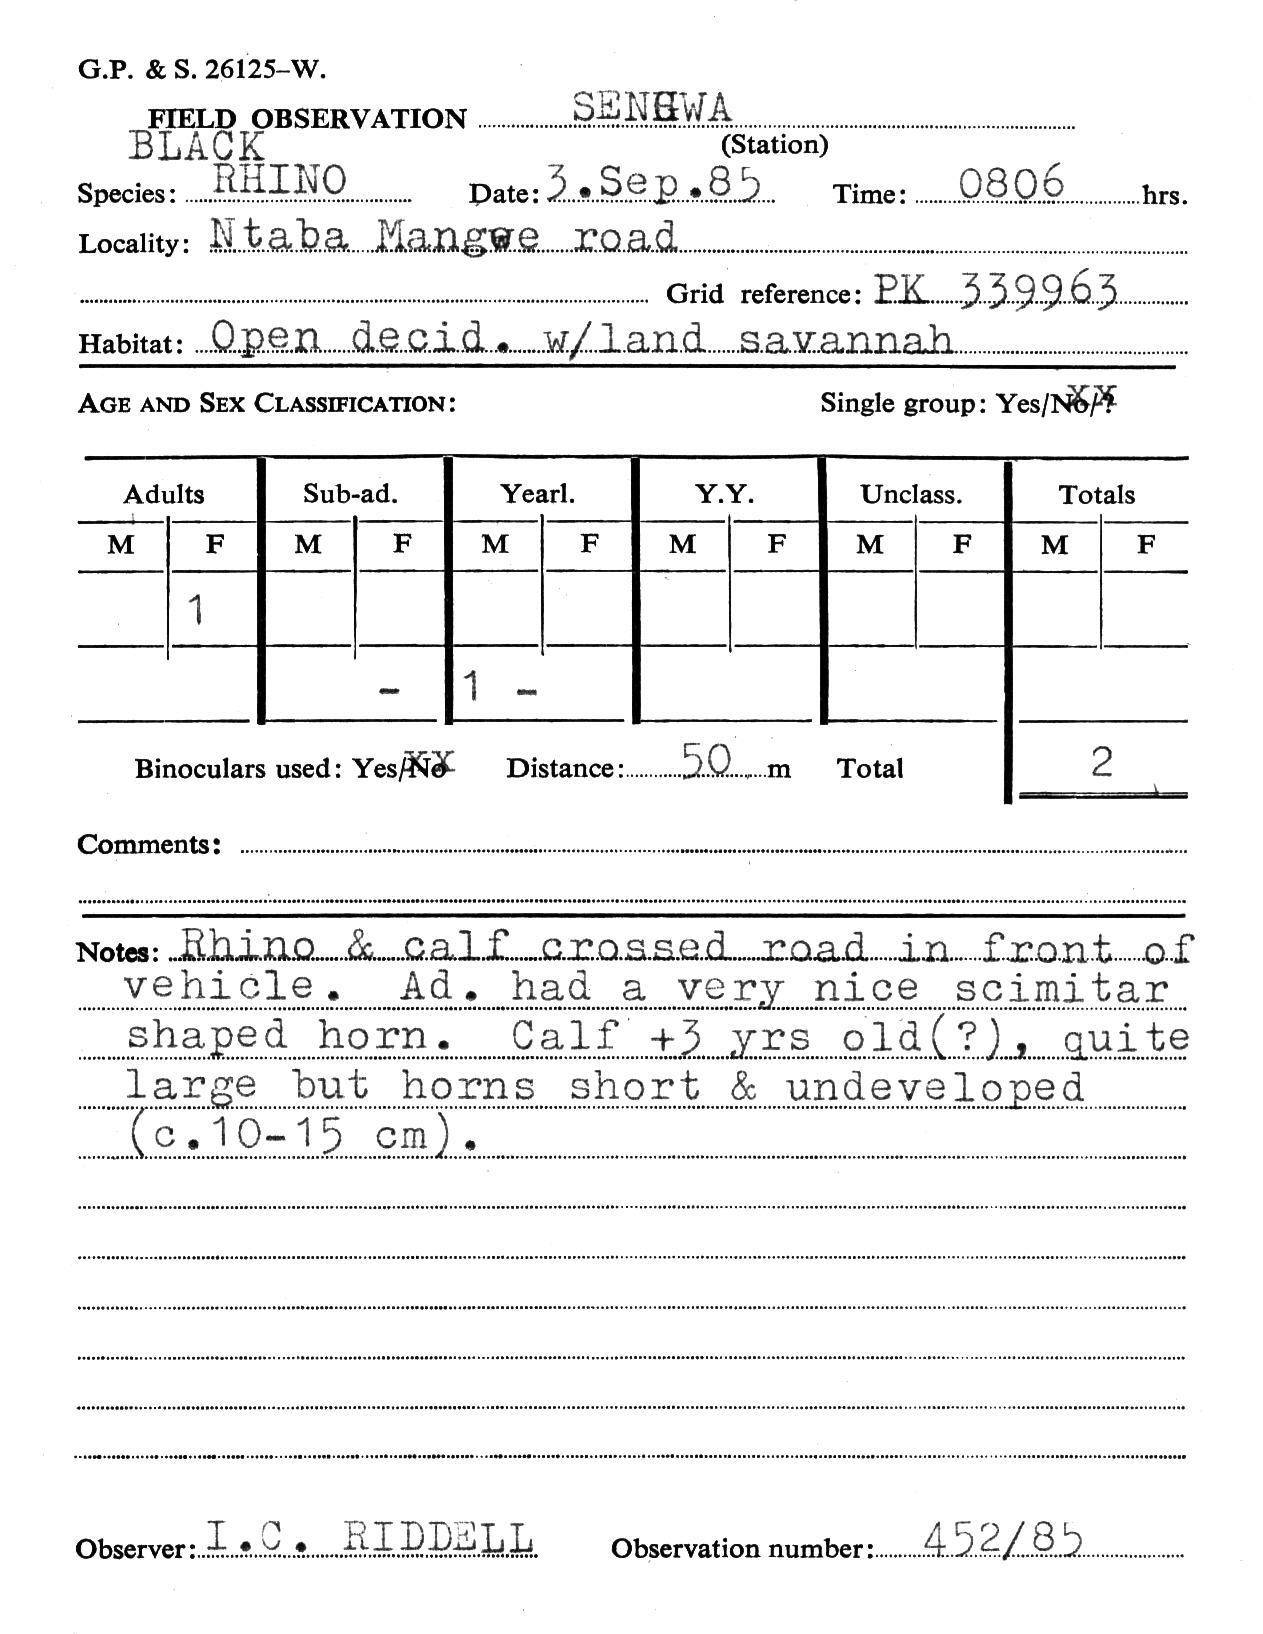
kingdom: Animalia
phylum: Chordata
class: Mammalia
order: Perissodactyla
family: Rhinocerotidae
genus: Diceros
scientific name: Diceros bicornis
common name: Black rhinoceros
